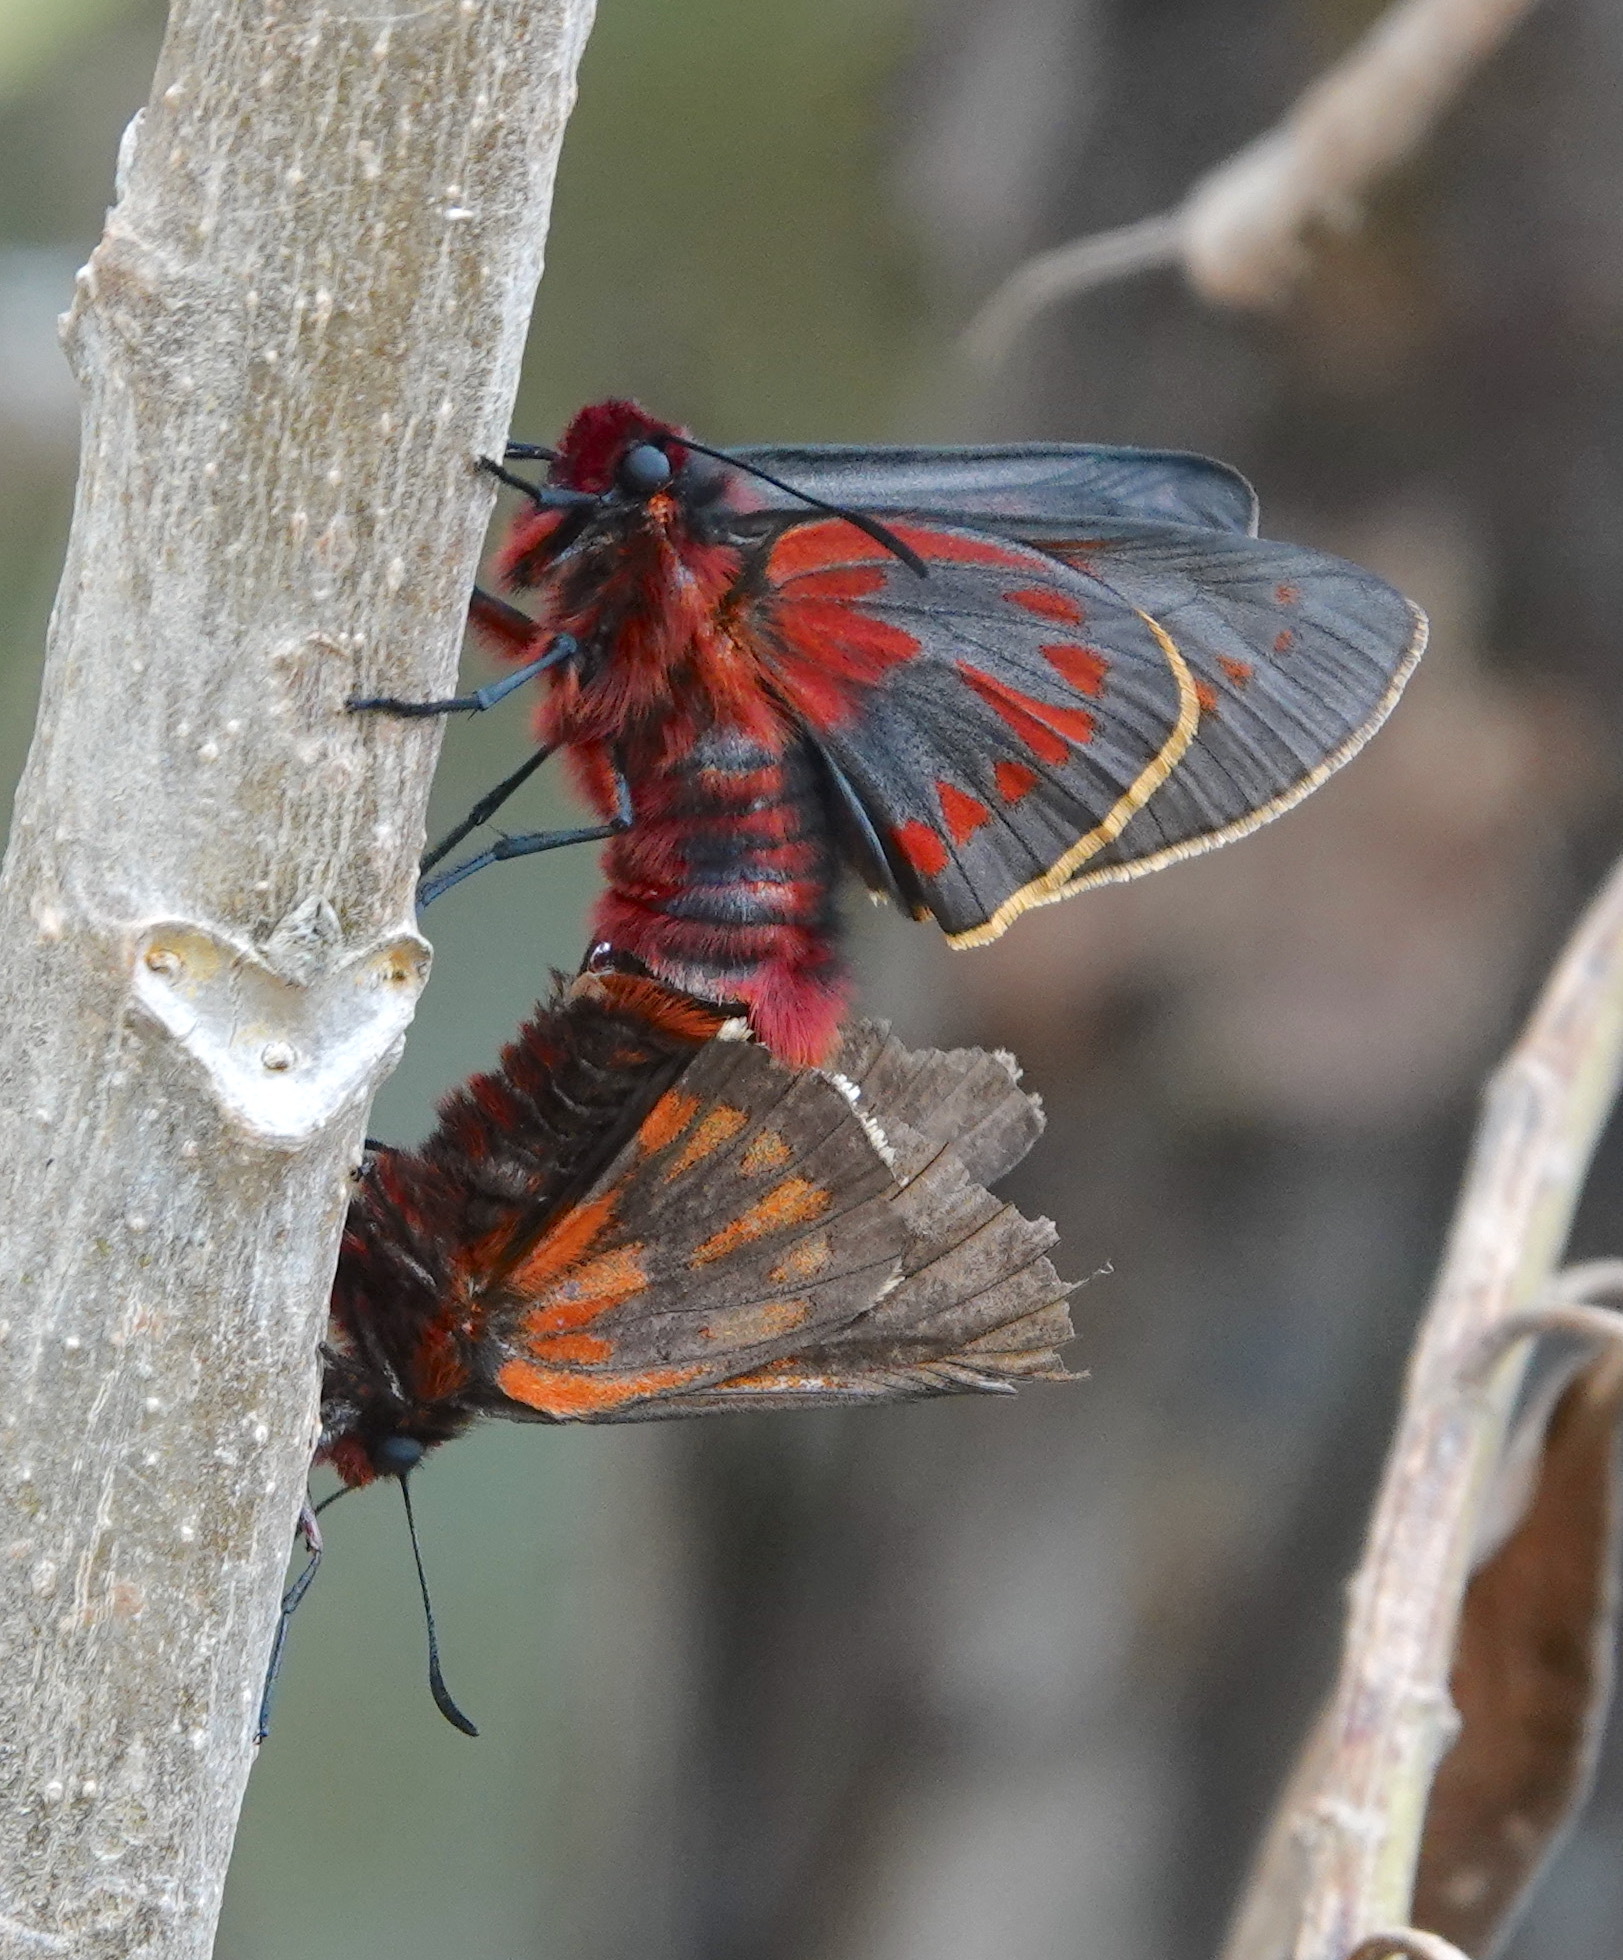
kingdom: Animalia
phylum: Arthropoda
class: Insecta
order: Lepidoptera
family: Hesperiidae
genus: Metardaris
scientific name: Metardaris cosinga
